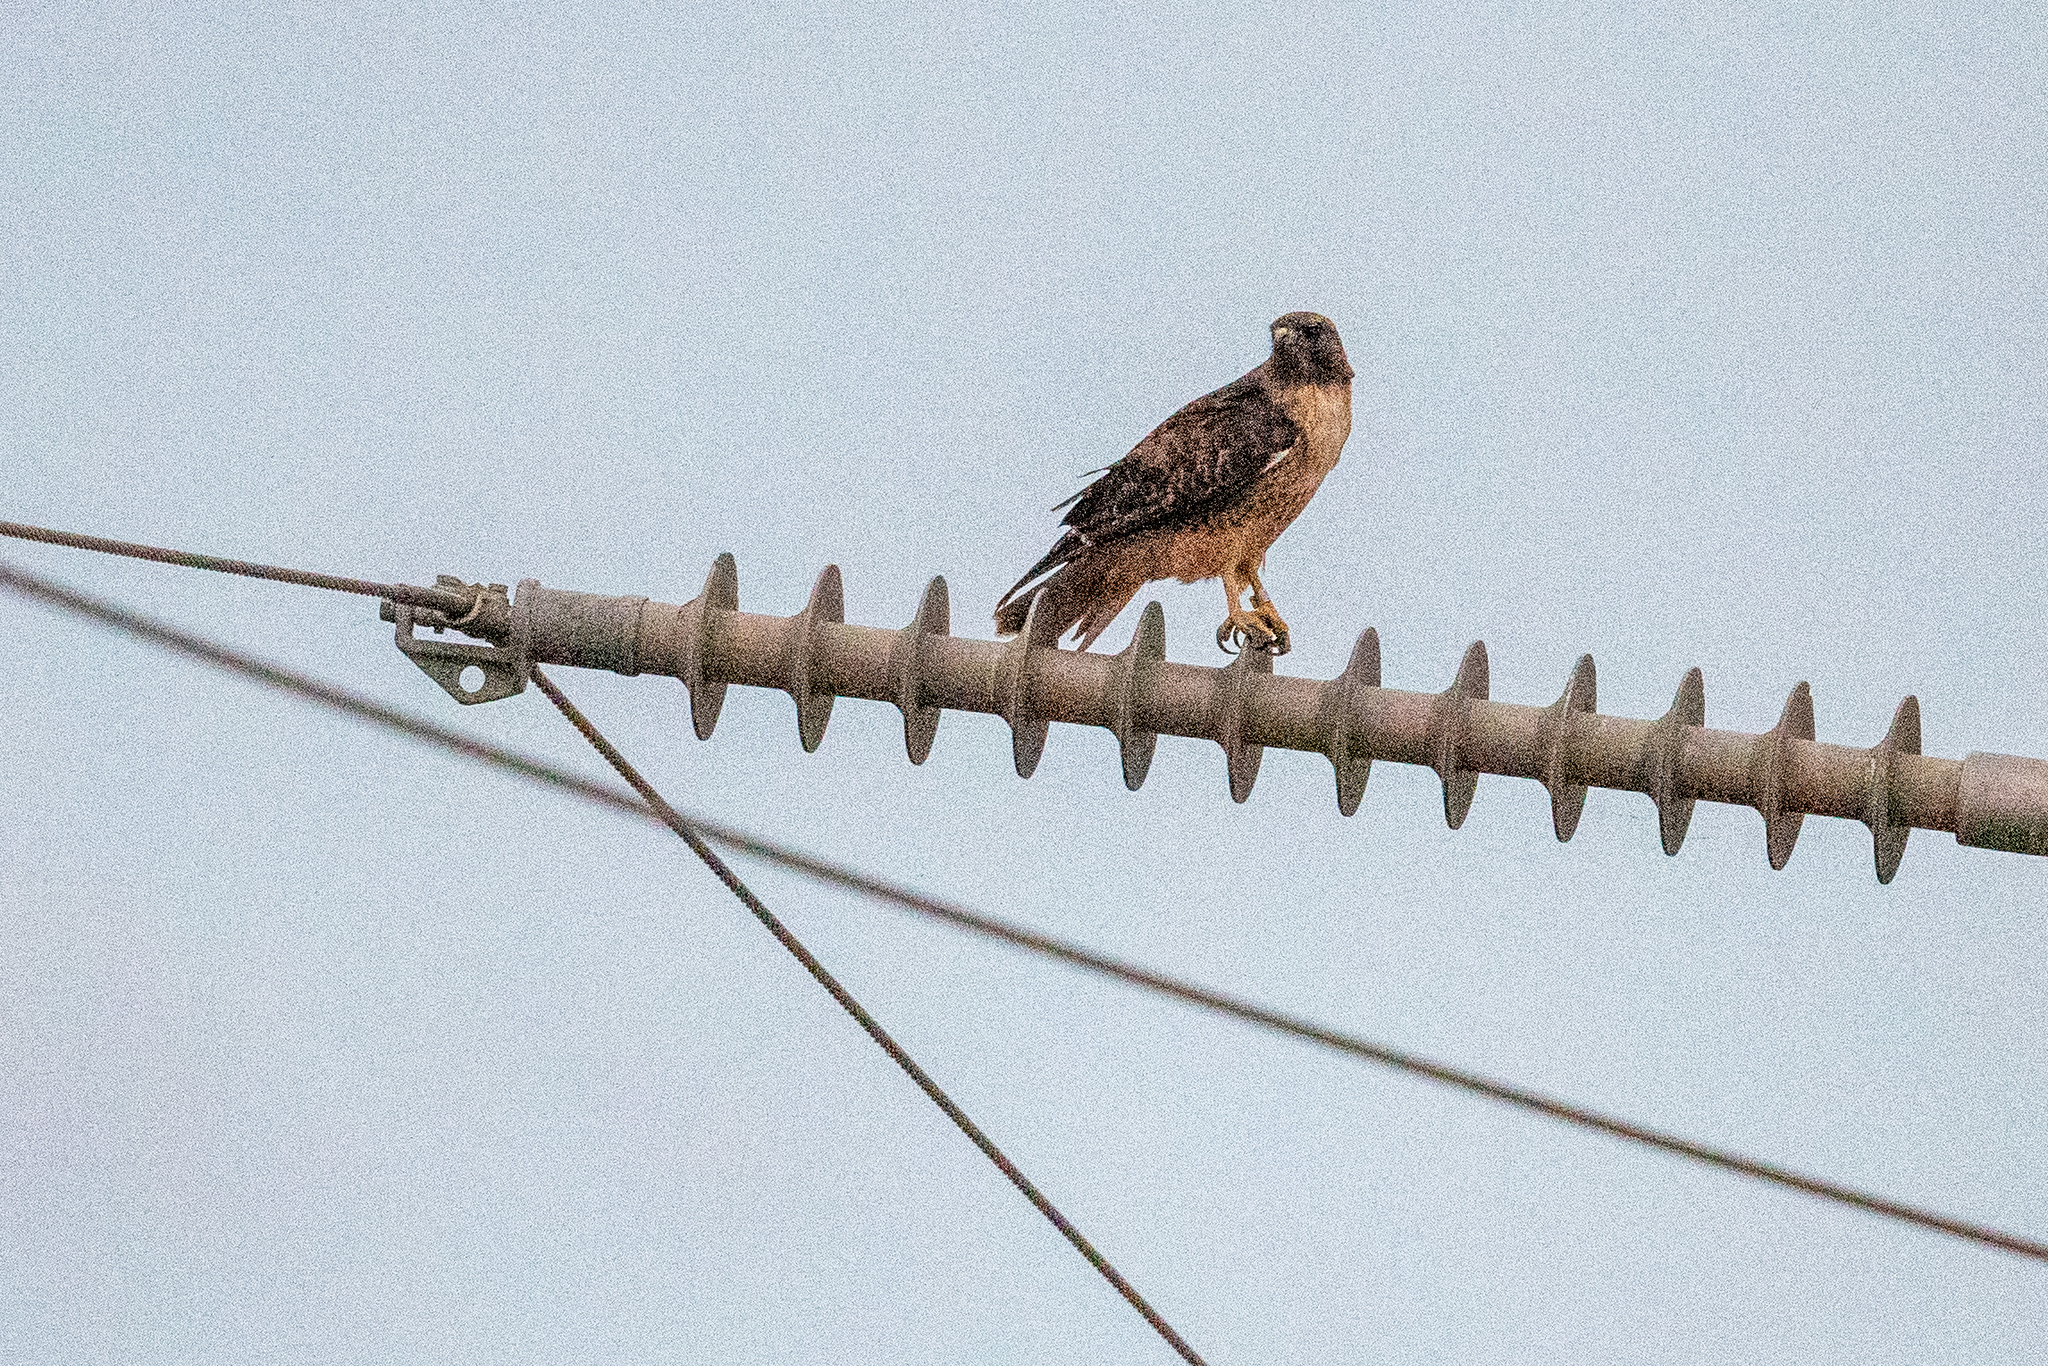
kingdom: Animalia
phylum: Chordata
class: Aves
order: Accipitriformes
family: Accipitridae
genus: Buteo
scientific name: Buteo jamaicensis
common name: Red-tailed hawk
